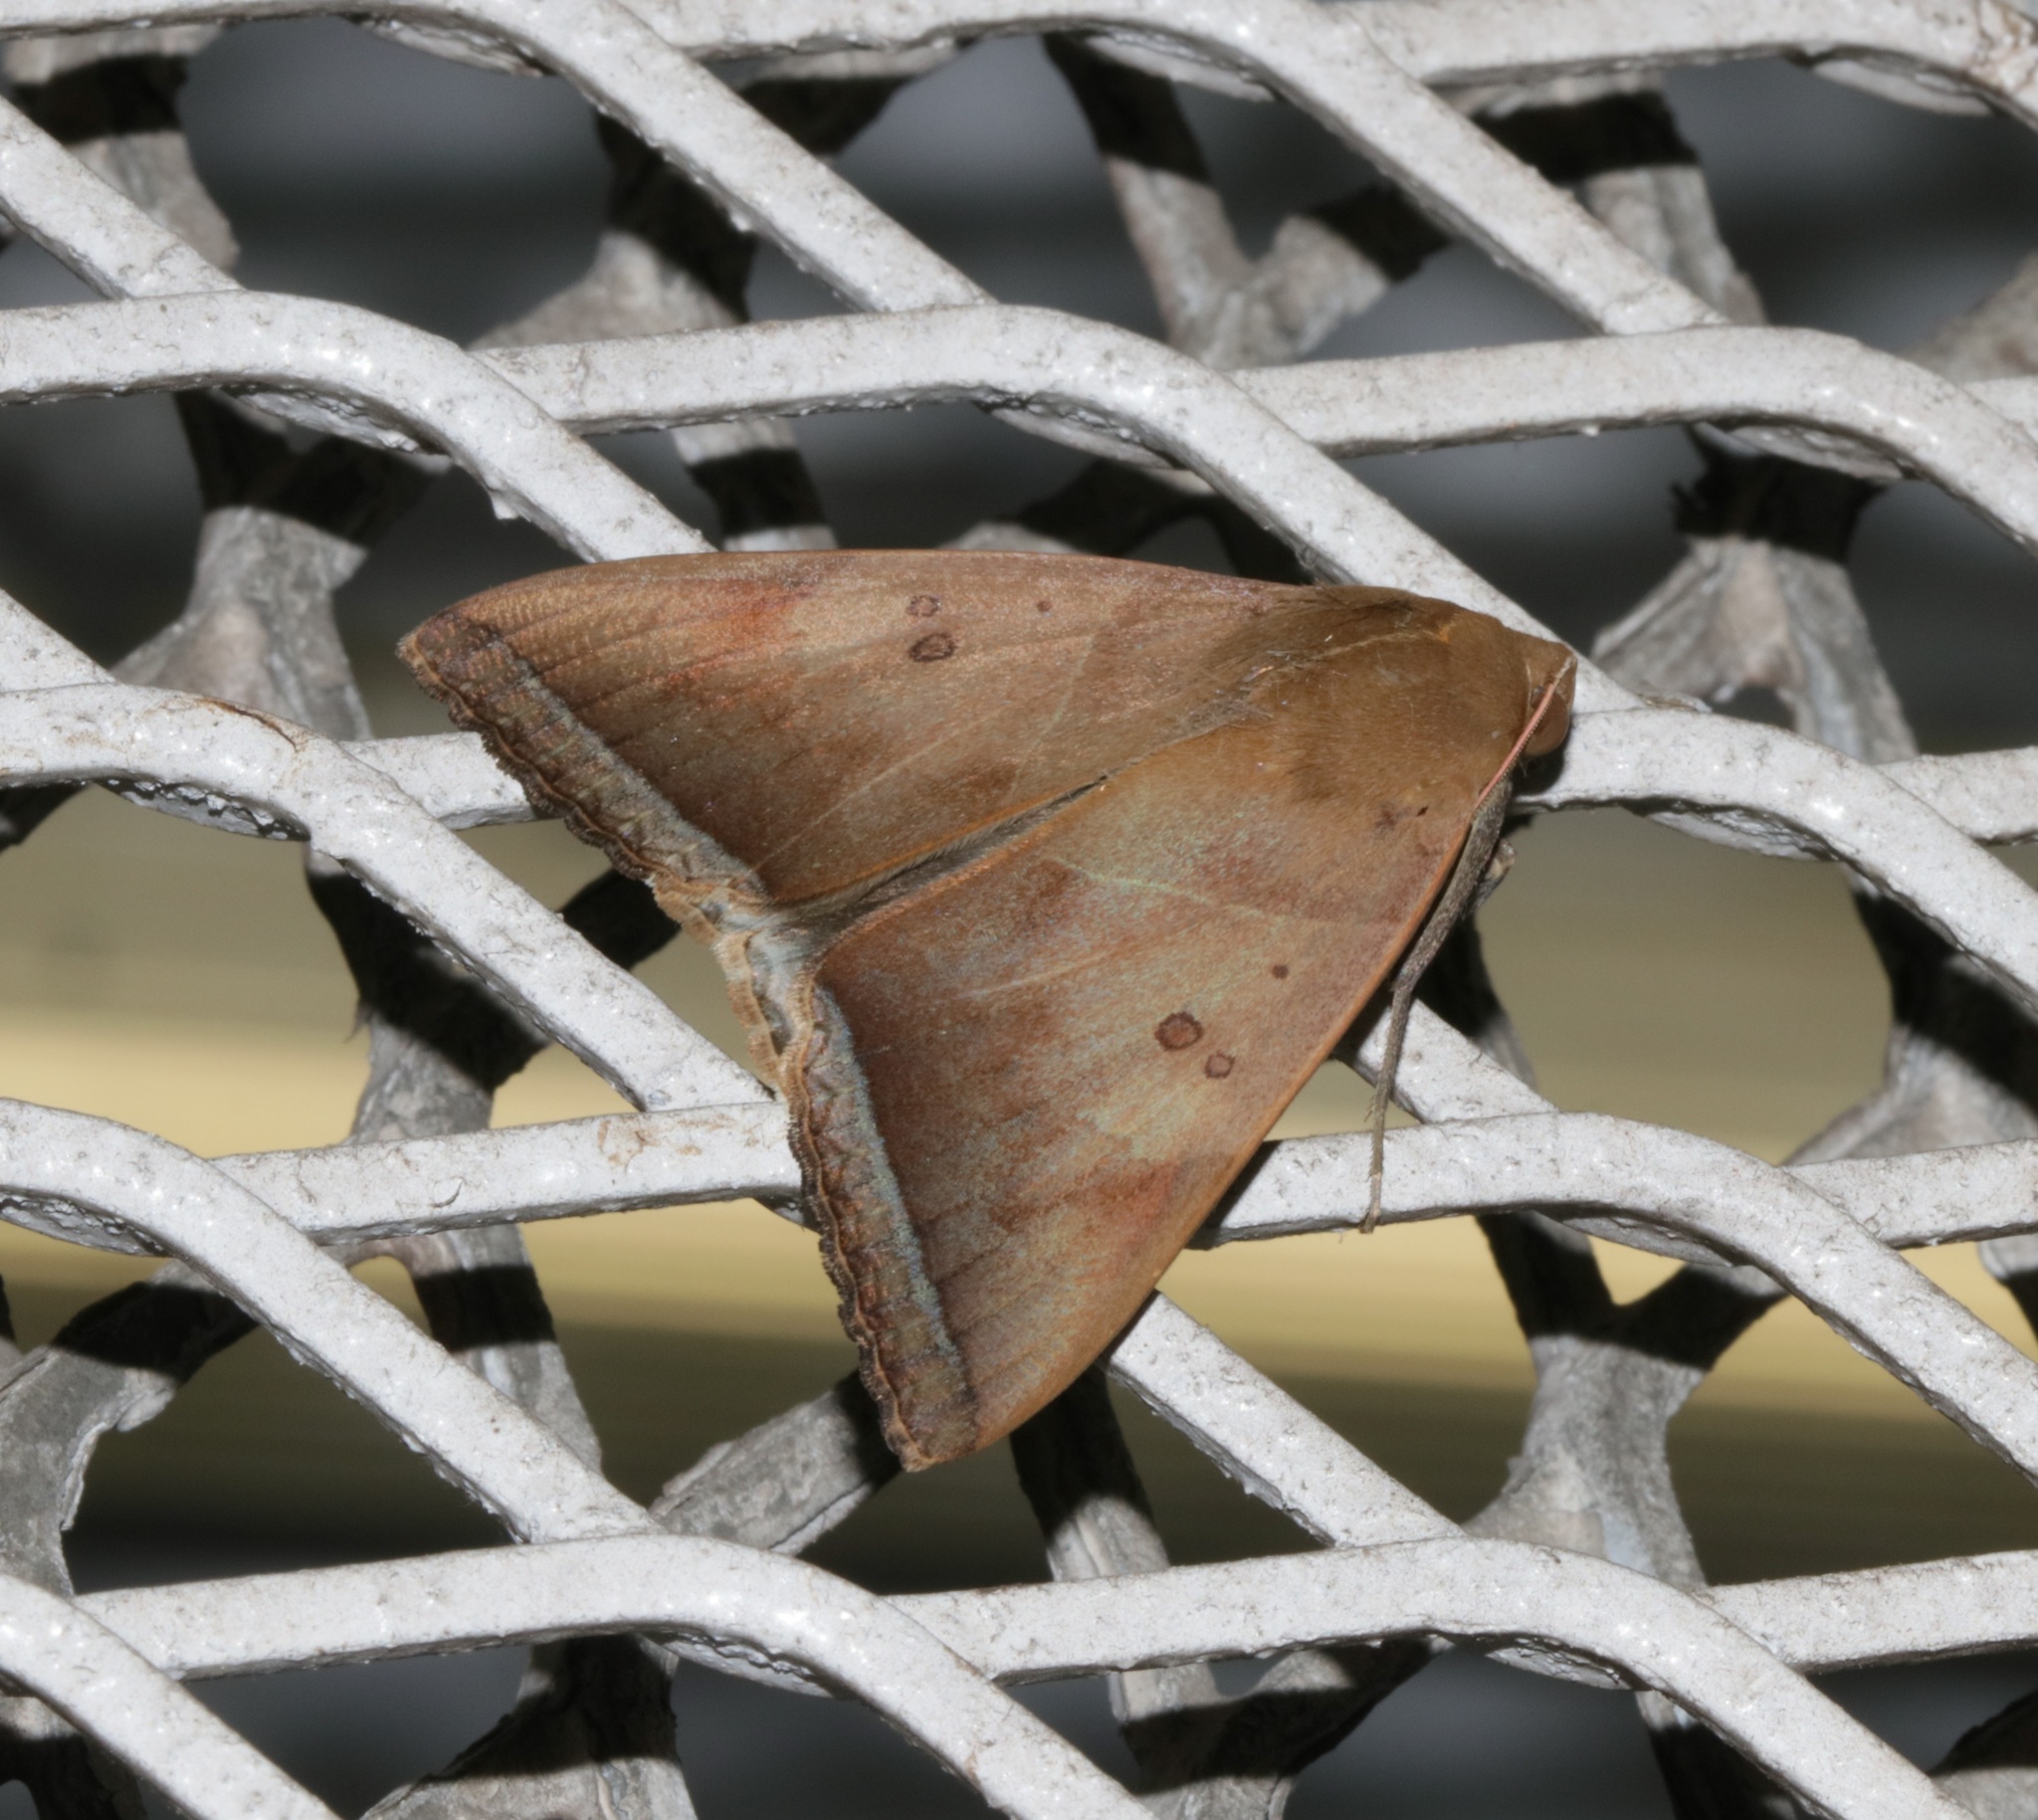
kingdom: Animalia
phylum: Arthropoda
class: Insecta
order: Lepidoptera
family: Erebidae
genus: Artena
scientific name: Artena dotata
